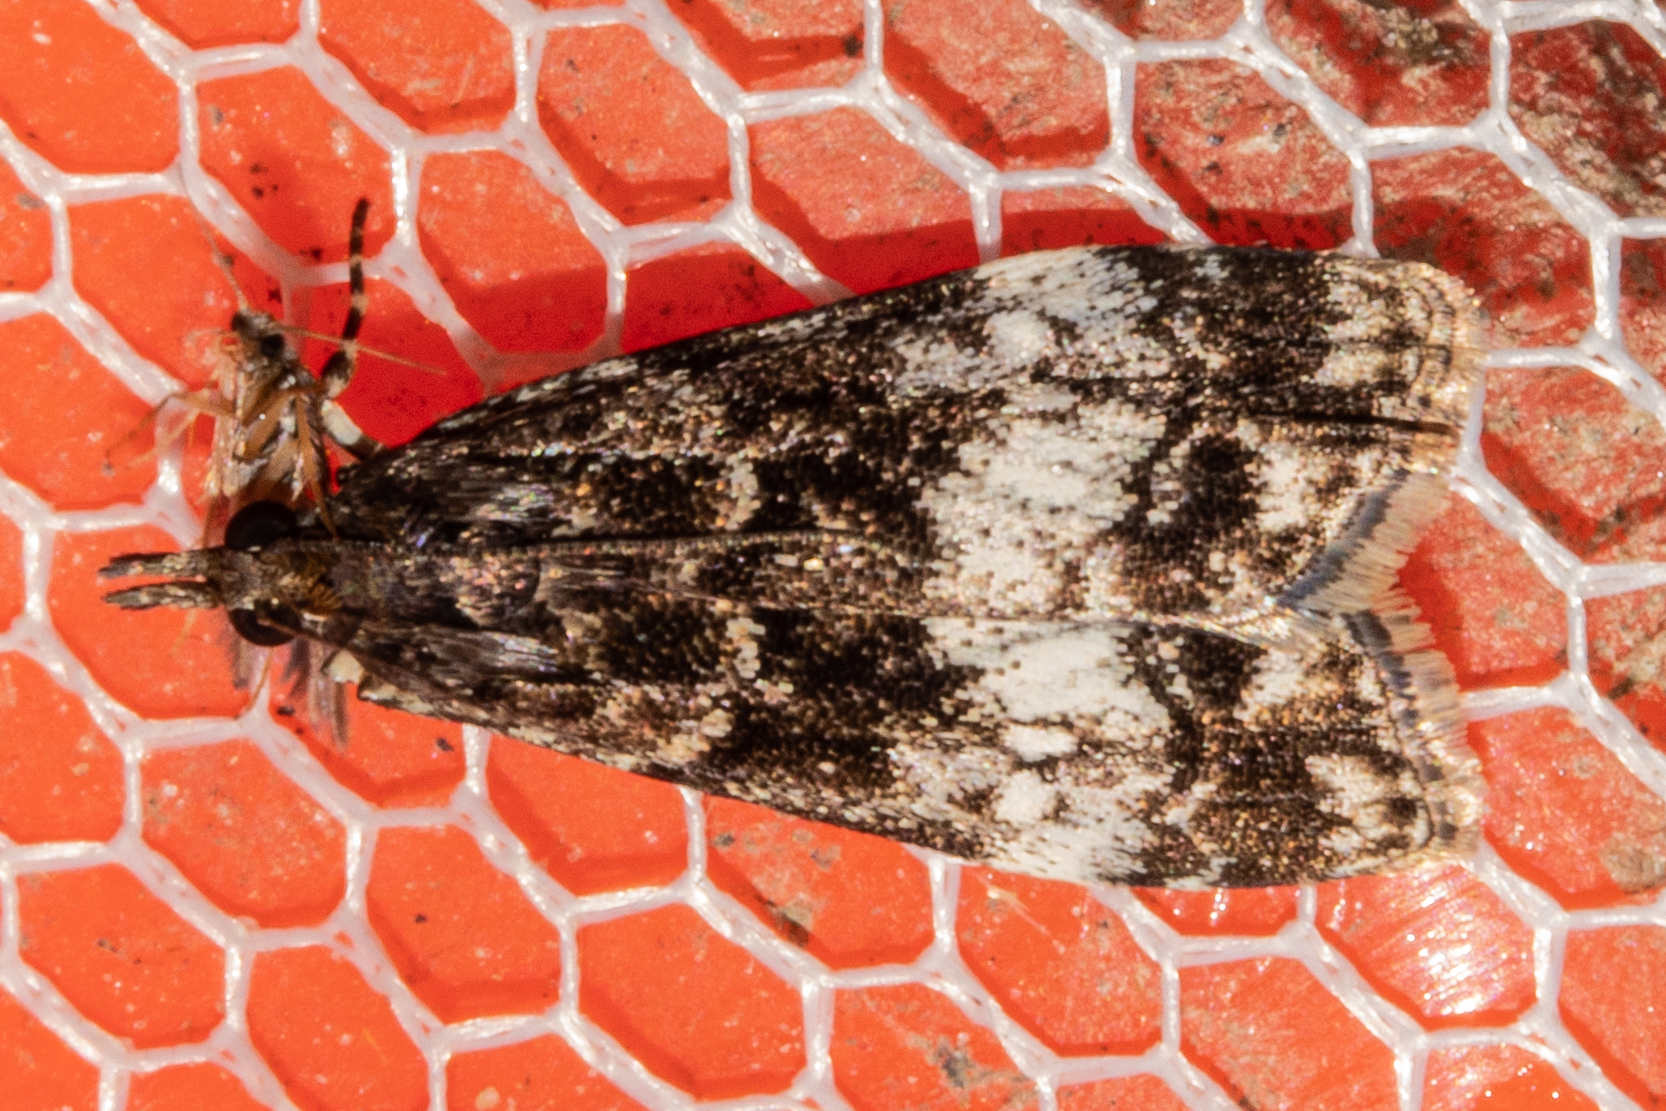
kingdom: Animalia
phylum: Arthropoda
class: Insecta
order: Lepidoptera
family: Crambidae
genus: Eudonia
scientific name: Eudonia dinodes
